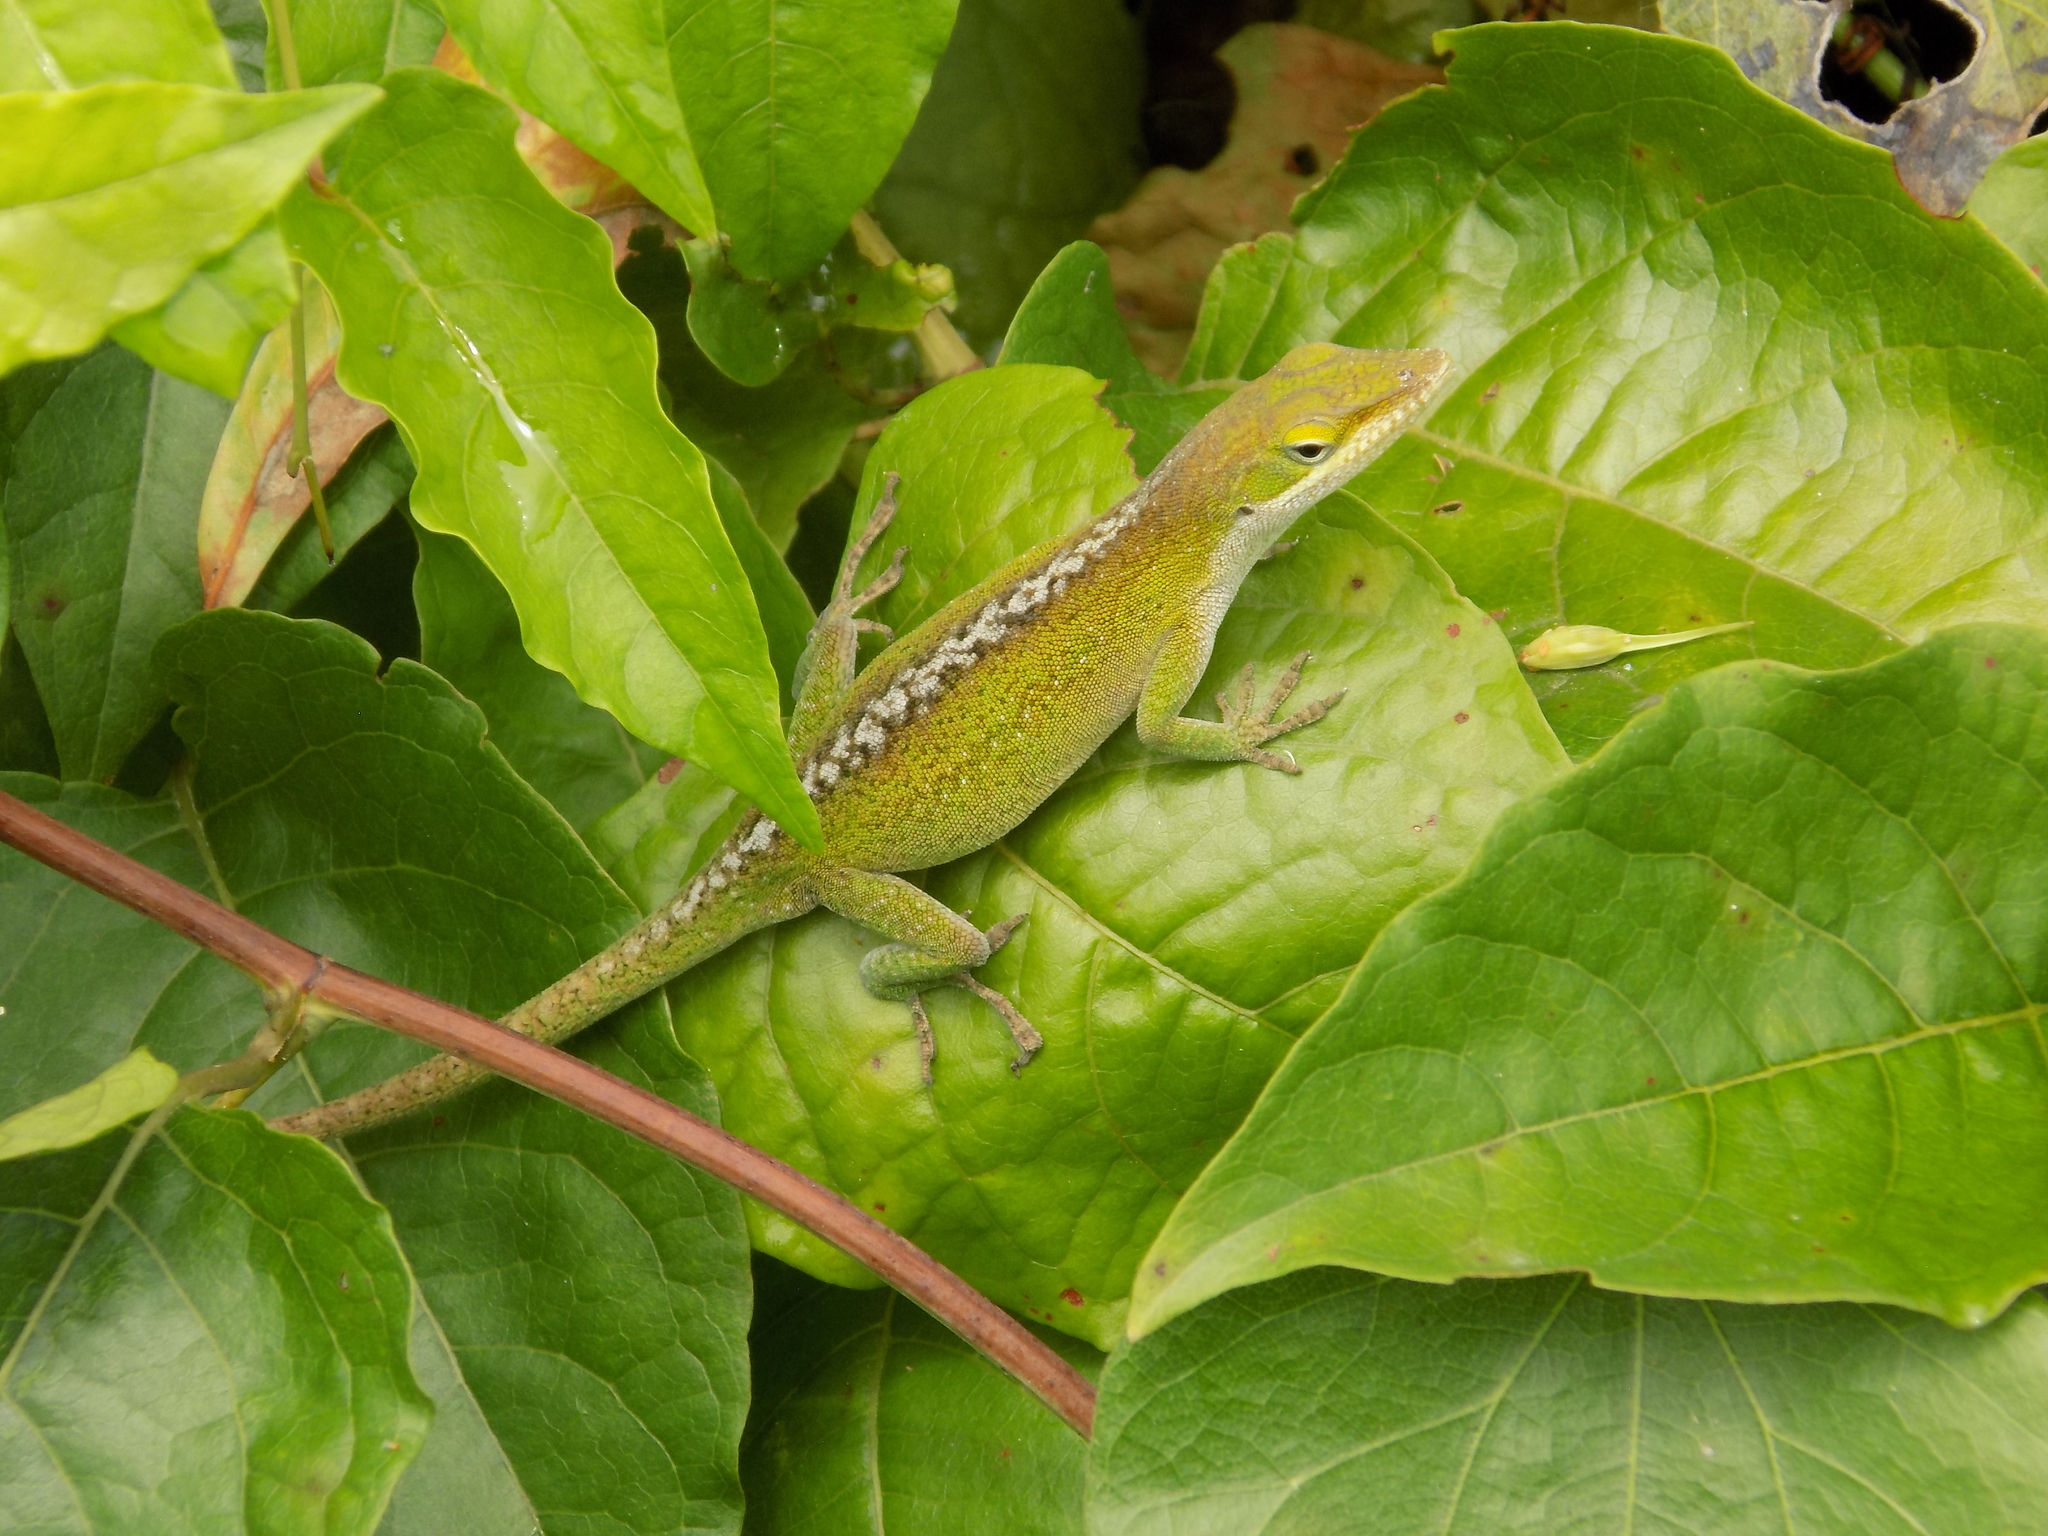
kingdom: Animalia
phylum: Chordata
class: Squamata
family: Dactyloidae
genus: Anolis
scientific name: Anolis carolinensis
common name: Green anole
